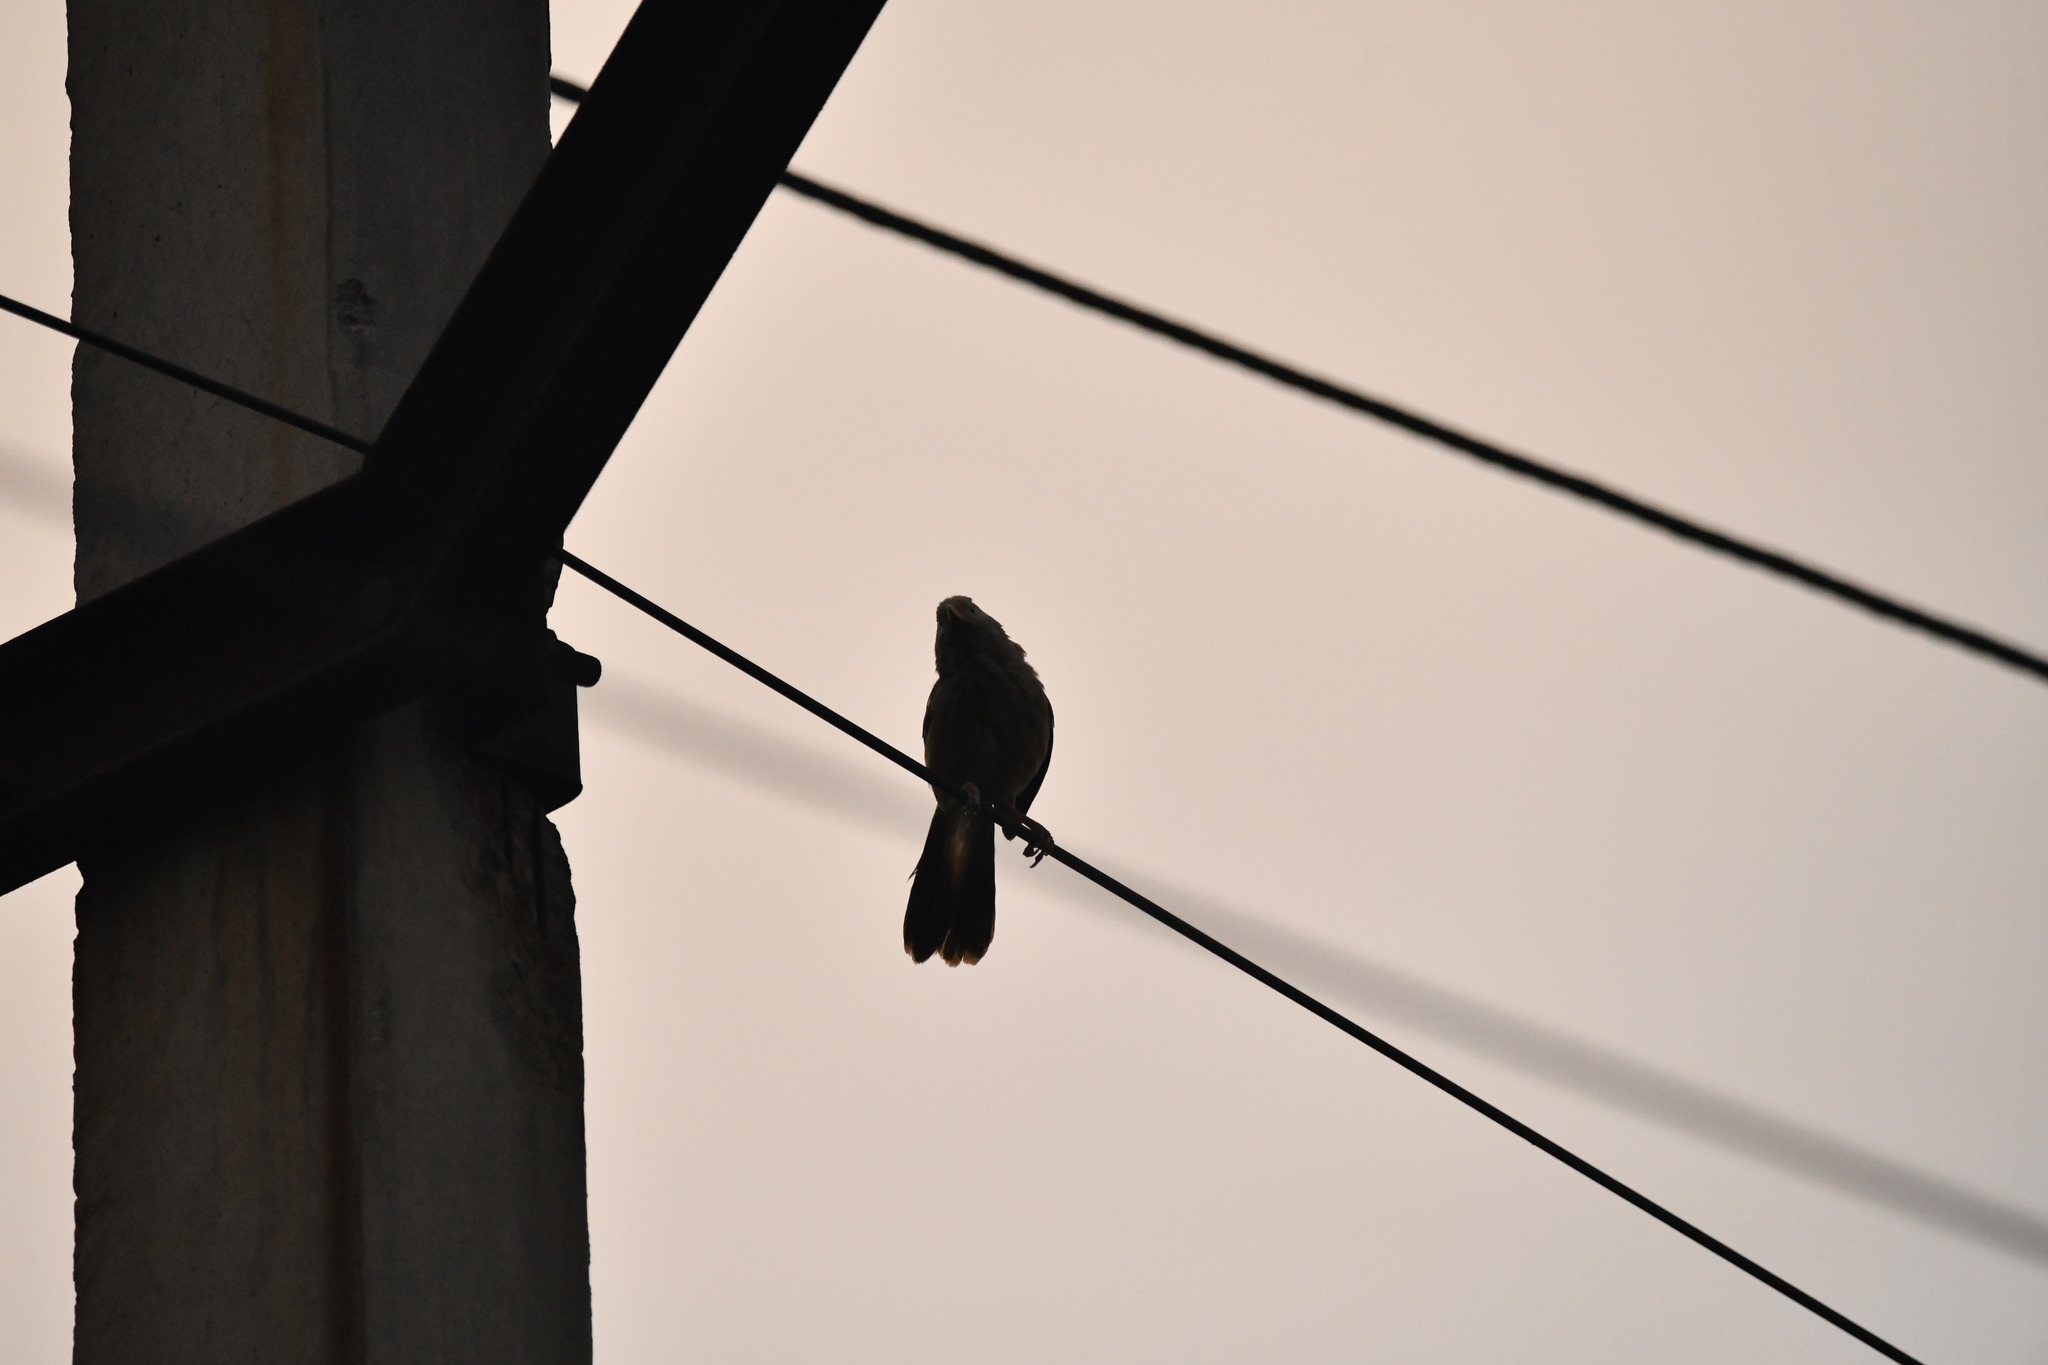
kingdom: Animalia
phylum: Chordata
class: Aves
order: Passeriformes
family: Leiothrichidae
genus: Turdoides
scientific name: Turdoides affinis
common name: Yellow-billed babbler
